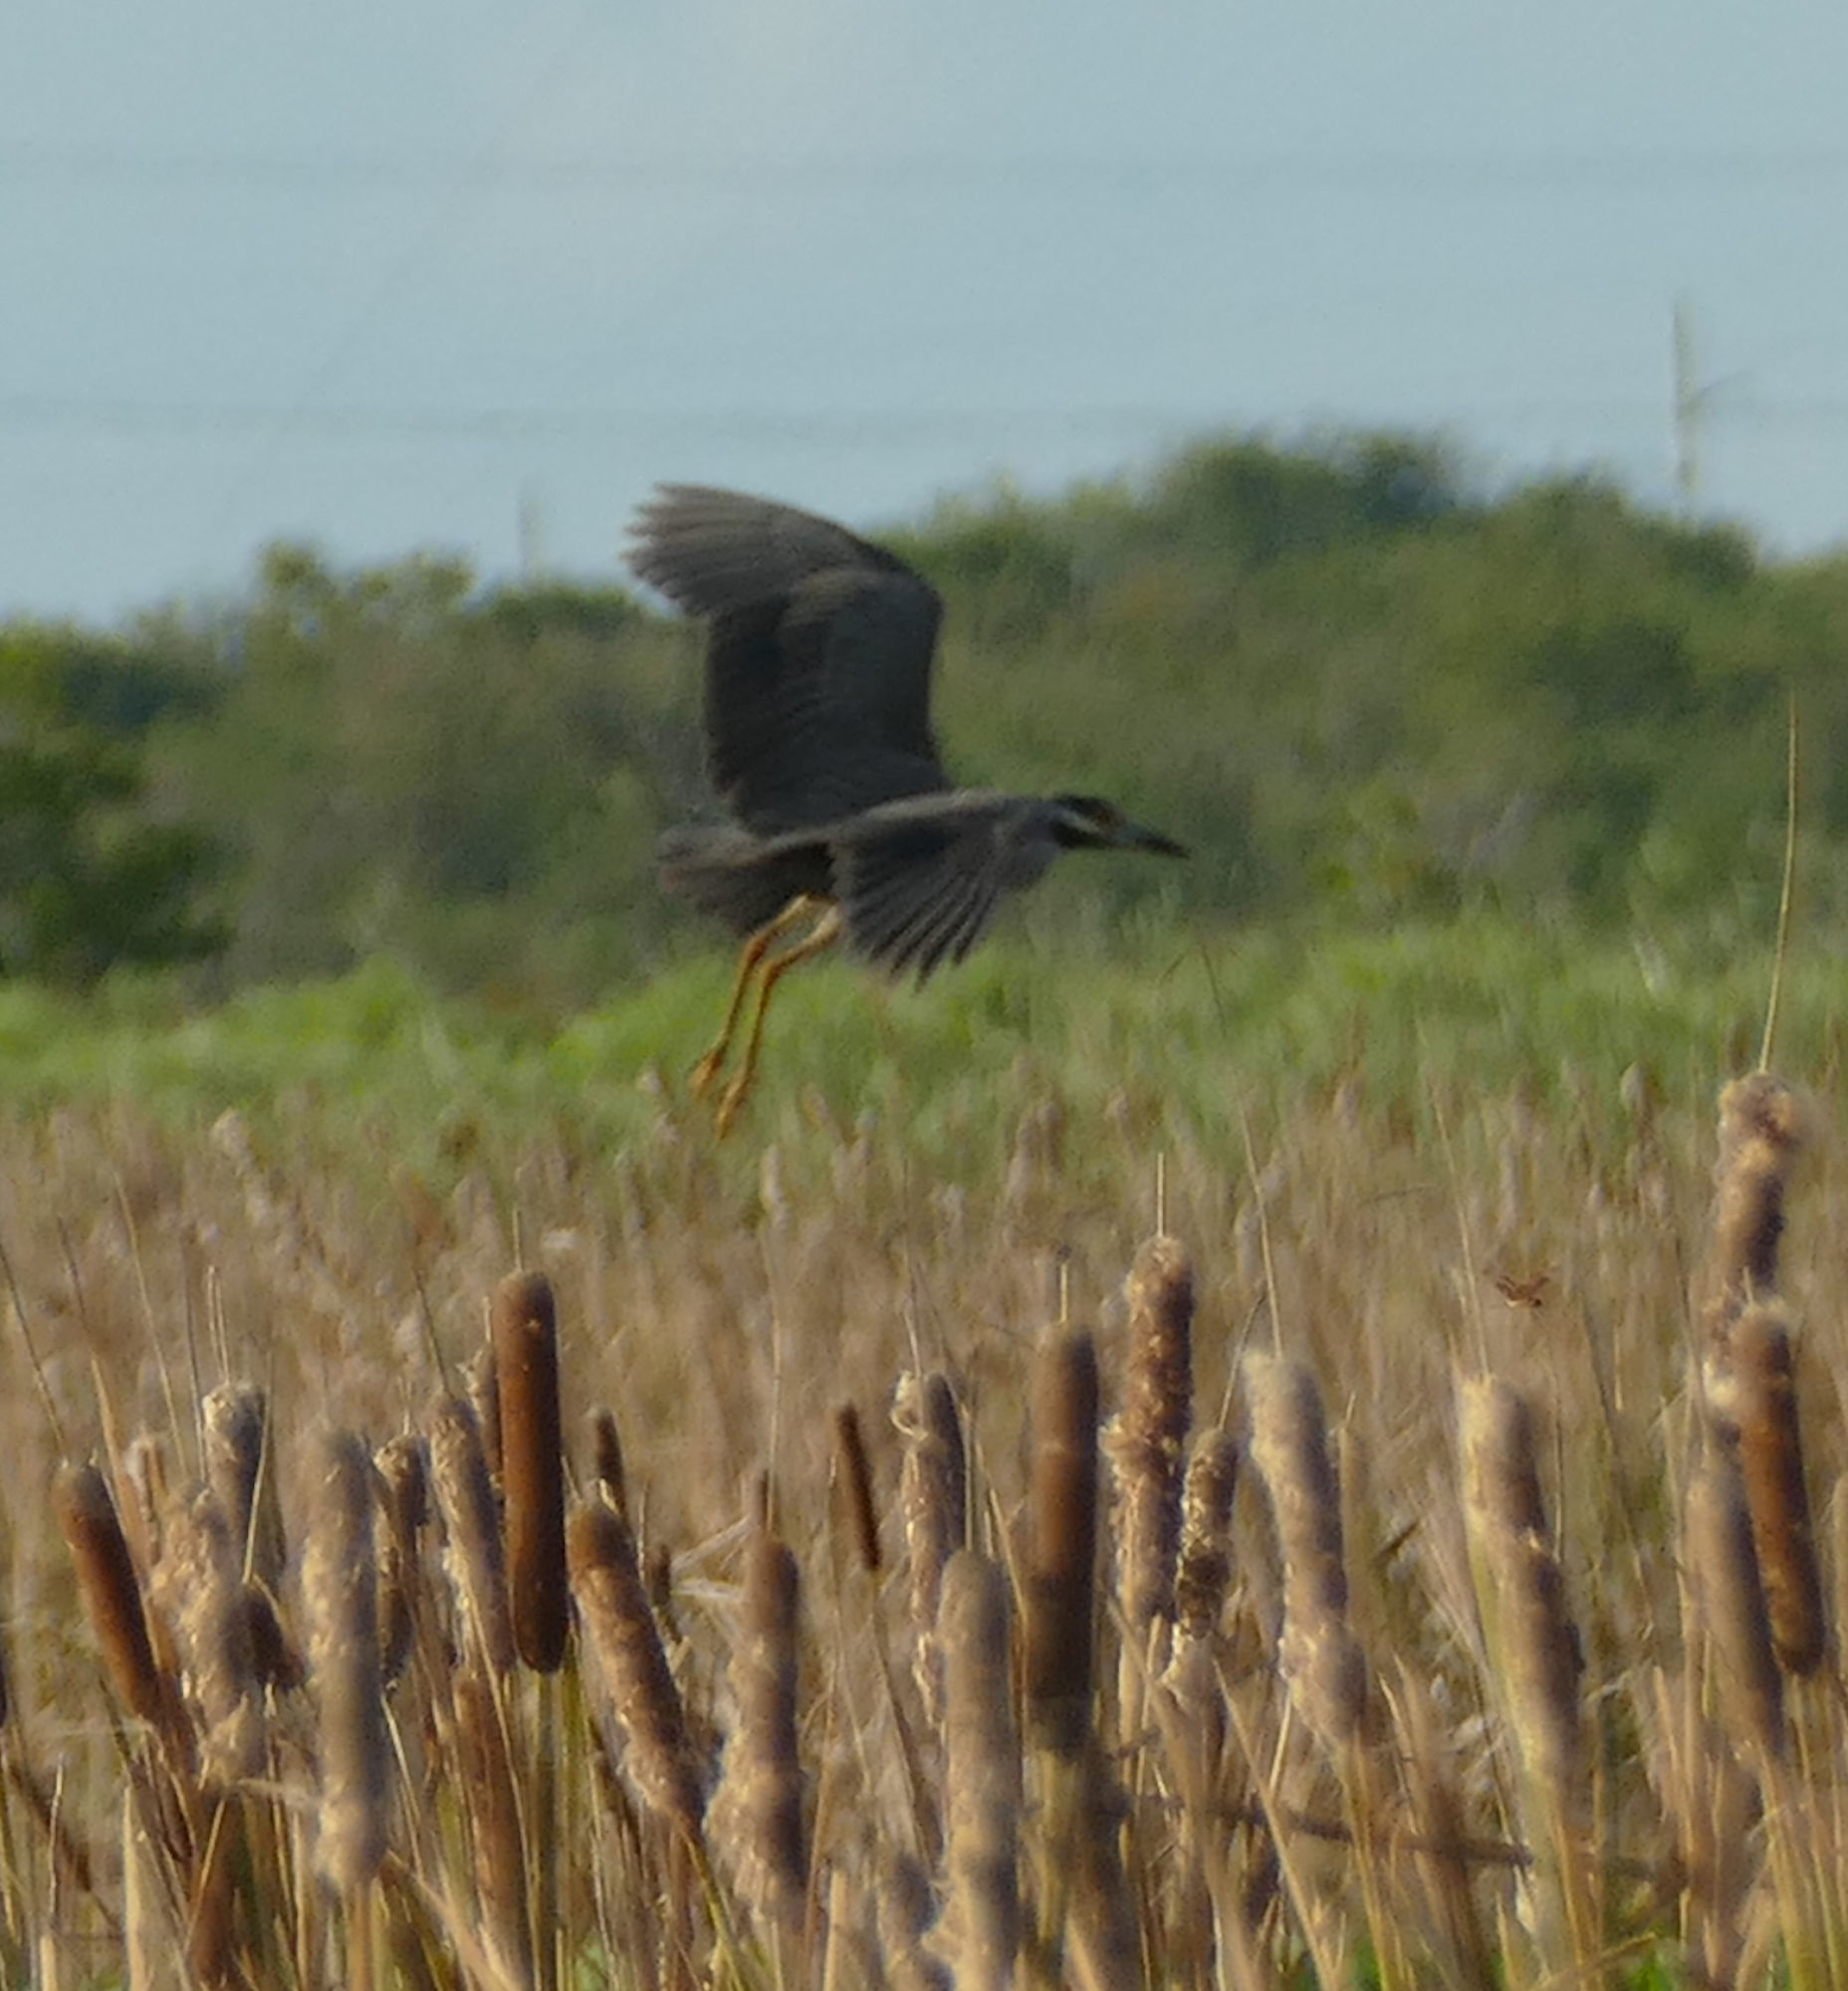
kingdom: Animalia
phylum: Chordata
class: Aves
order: Pelecaniformes
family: Ardeidae
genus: Nyctanassa
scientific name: Nyctanassa violacea
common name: Yellow-crowned night heron
